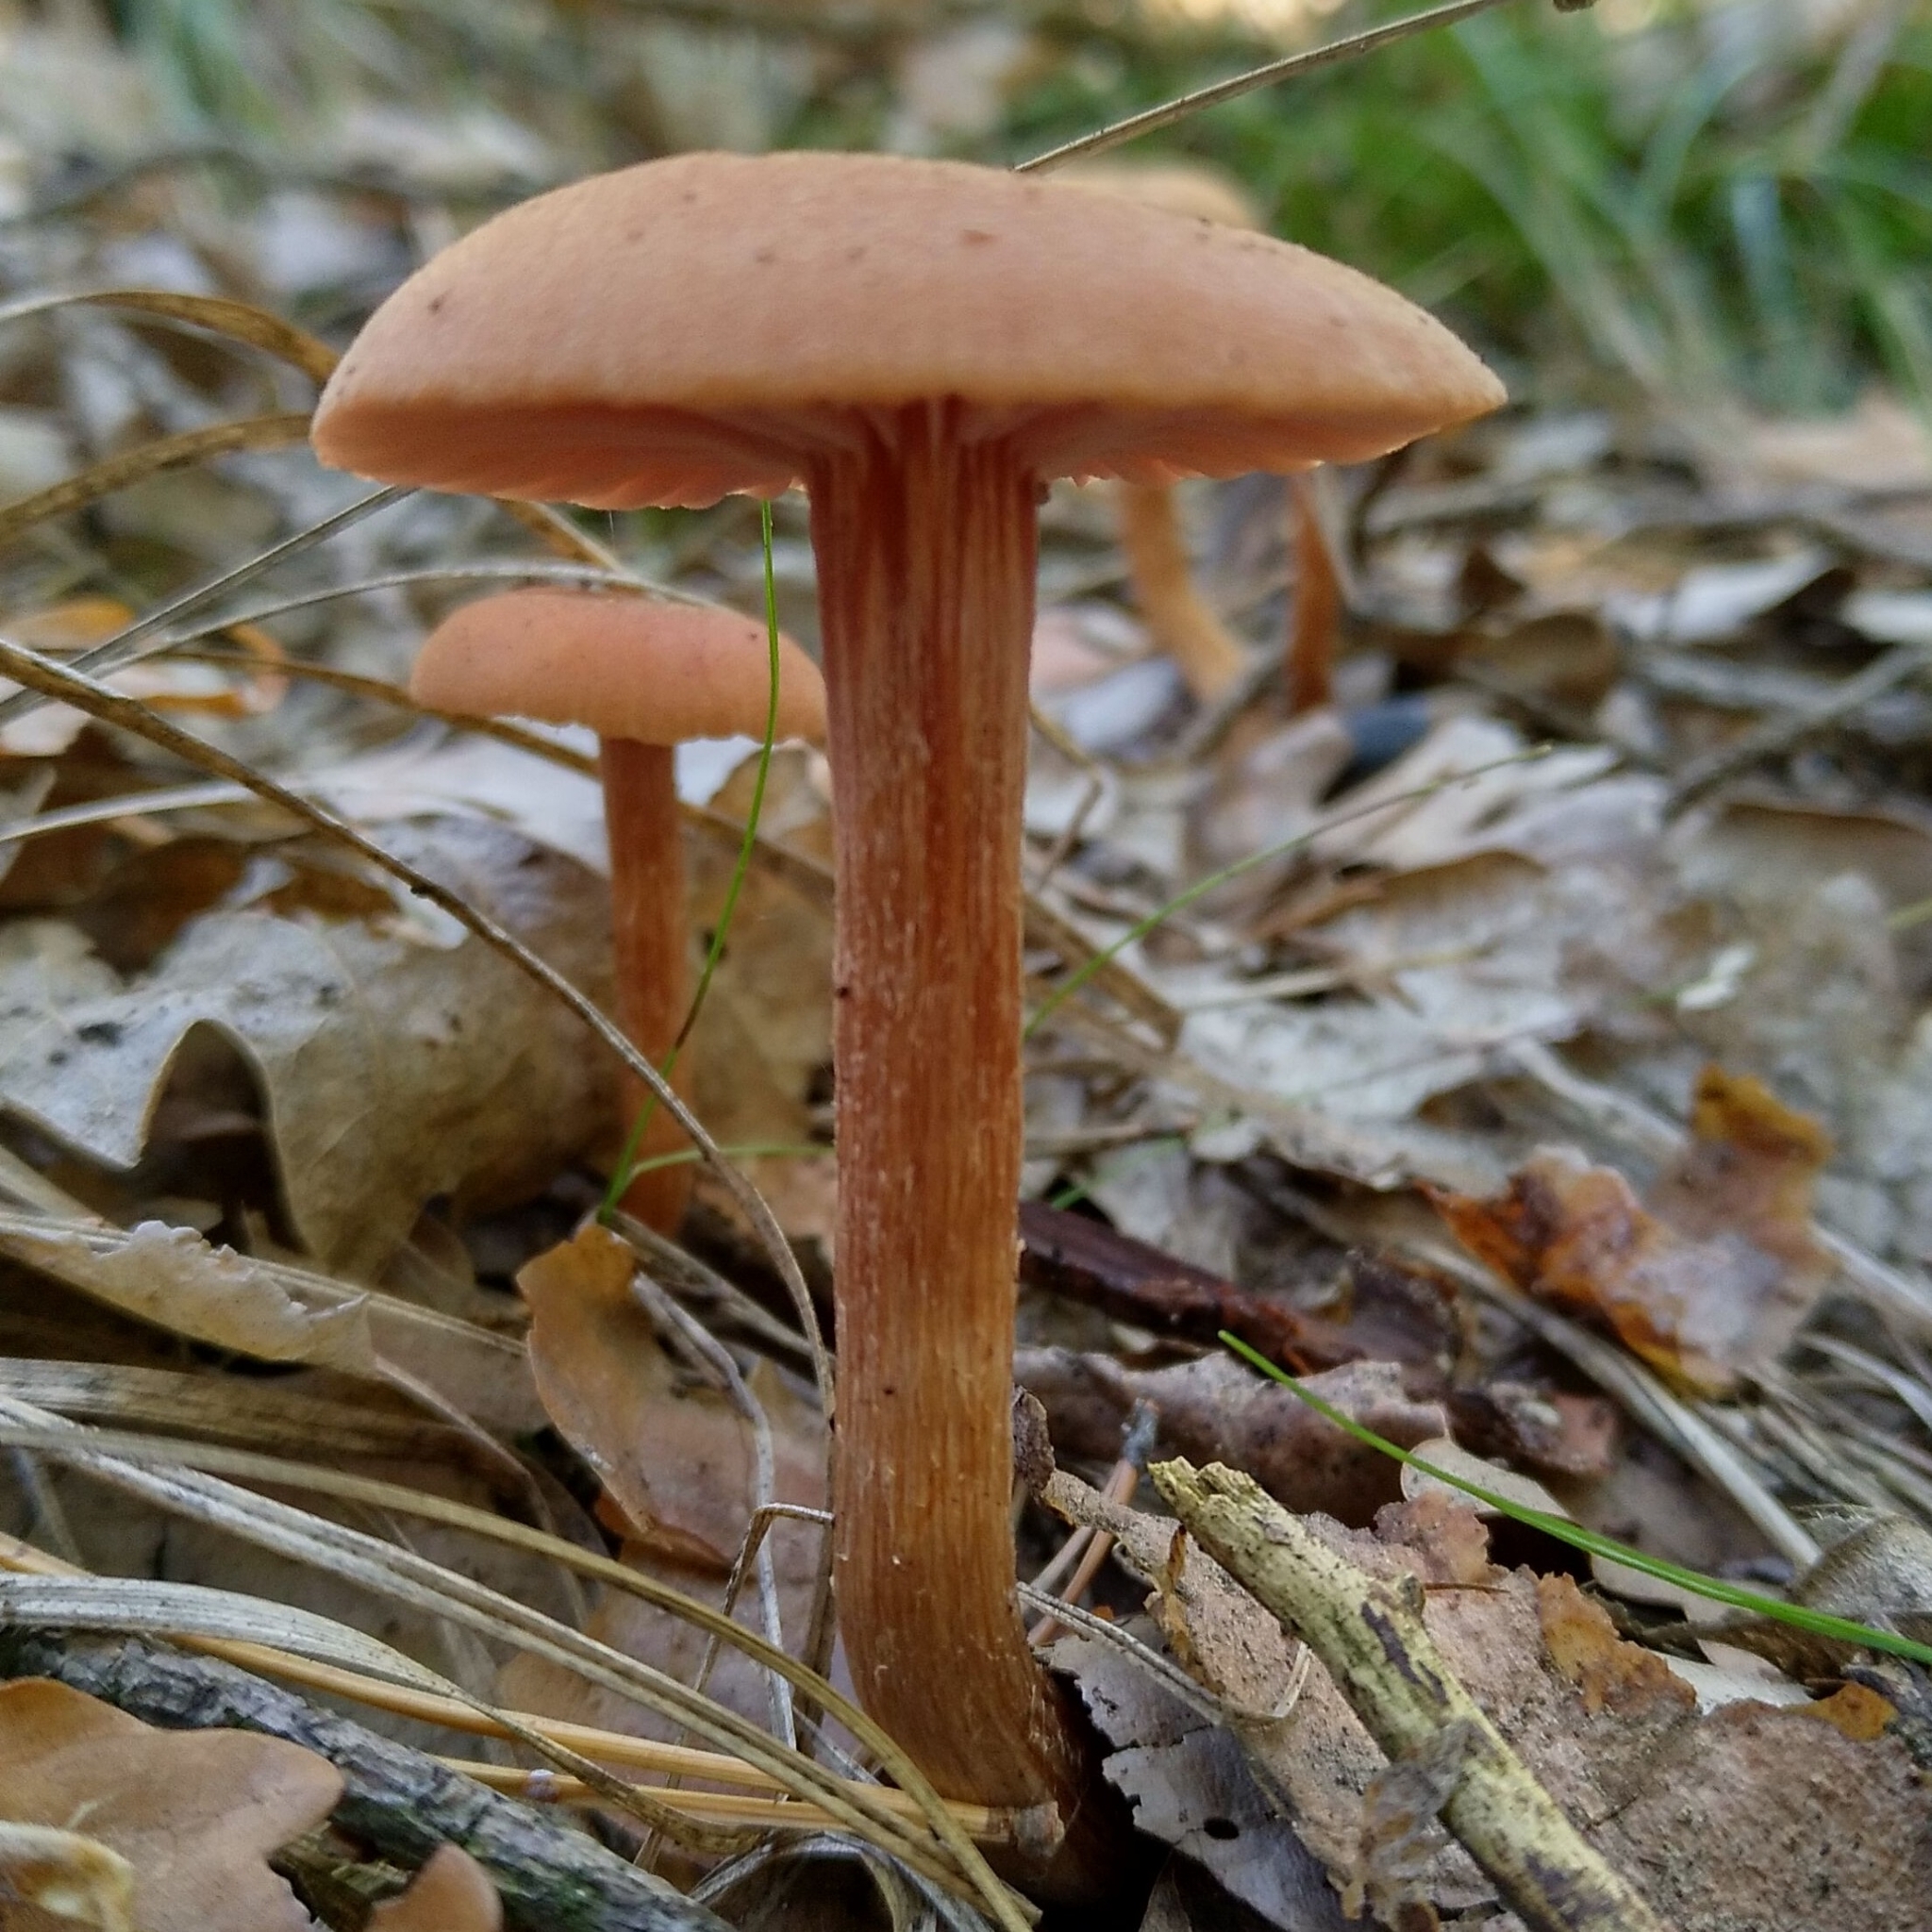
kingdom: Fungi
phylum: Basidiomycota
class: Agaricomycetes
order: Agaricales
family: Hydnangiaceae
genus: Laccaria
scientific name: Laccaria laccata
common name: Deceiver
